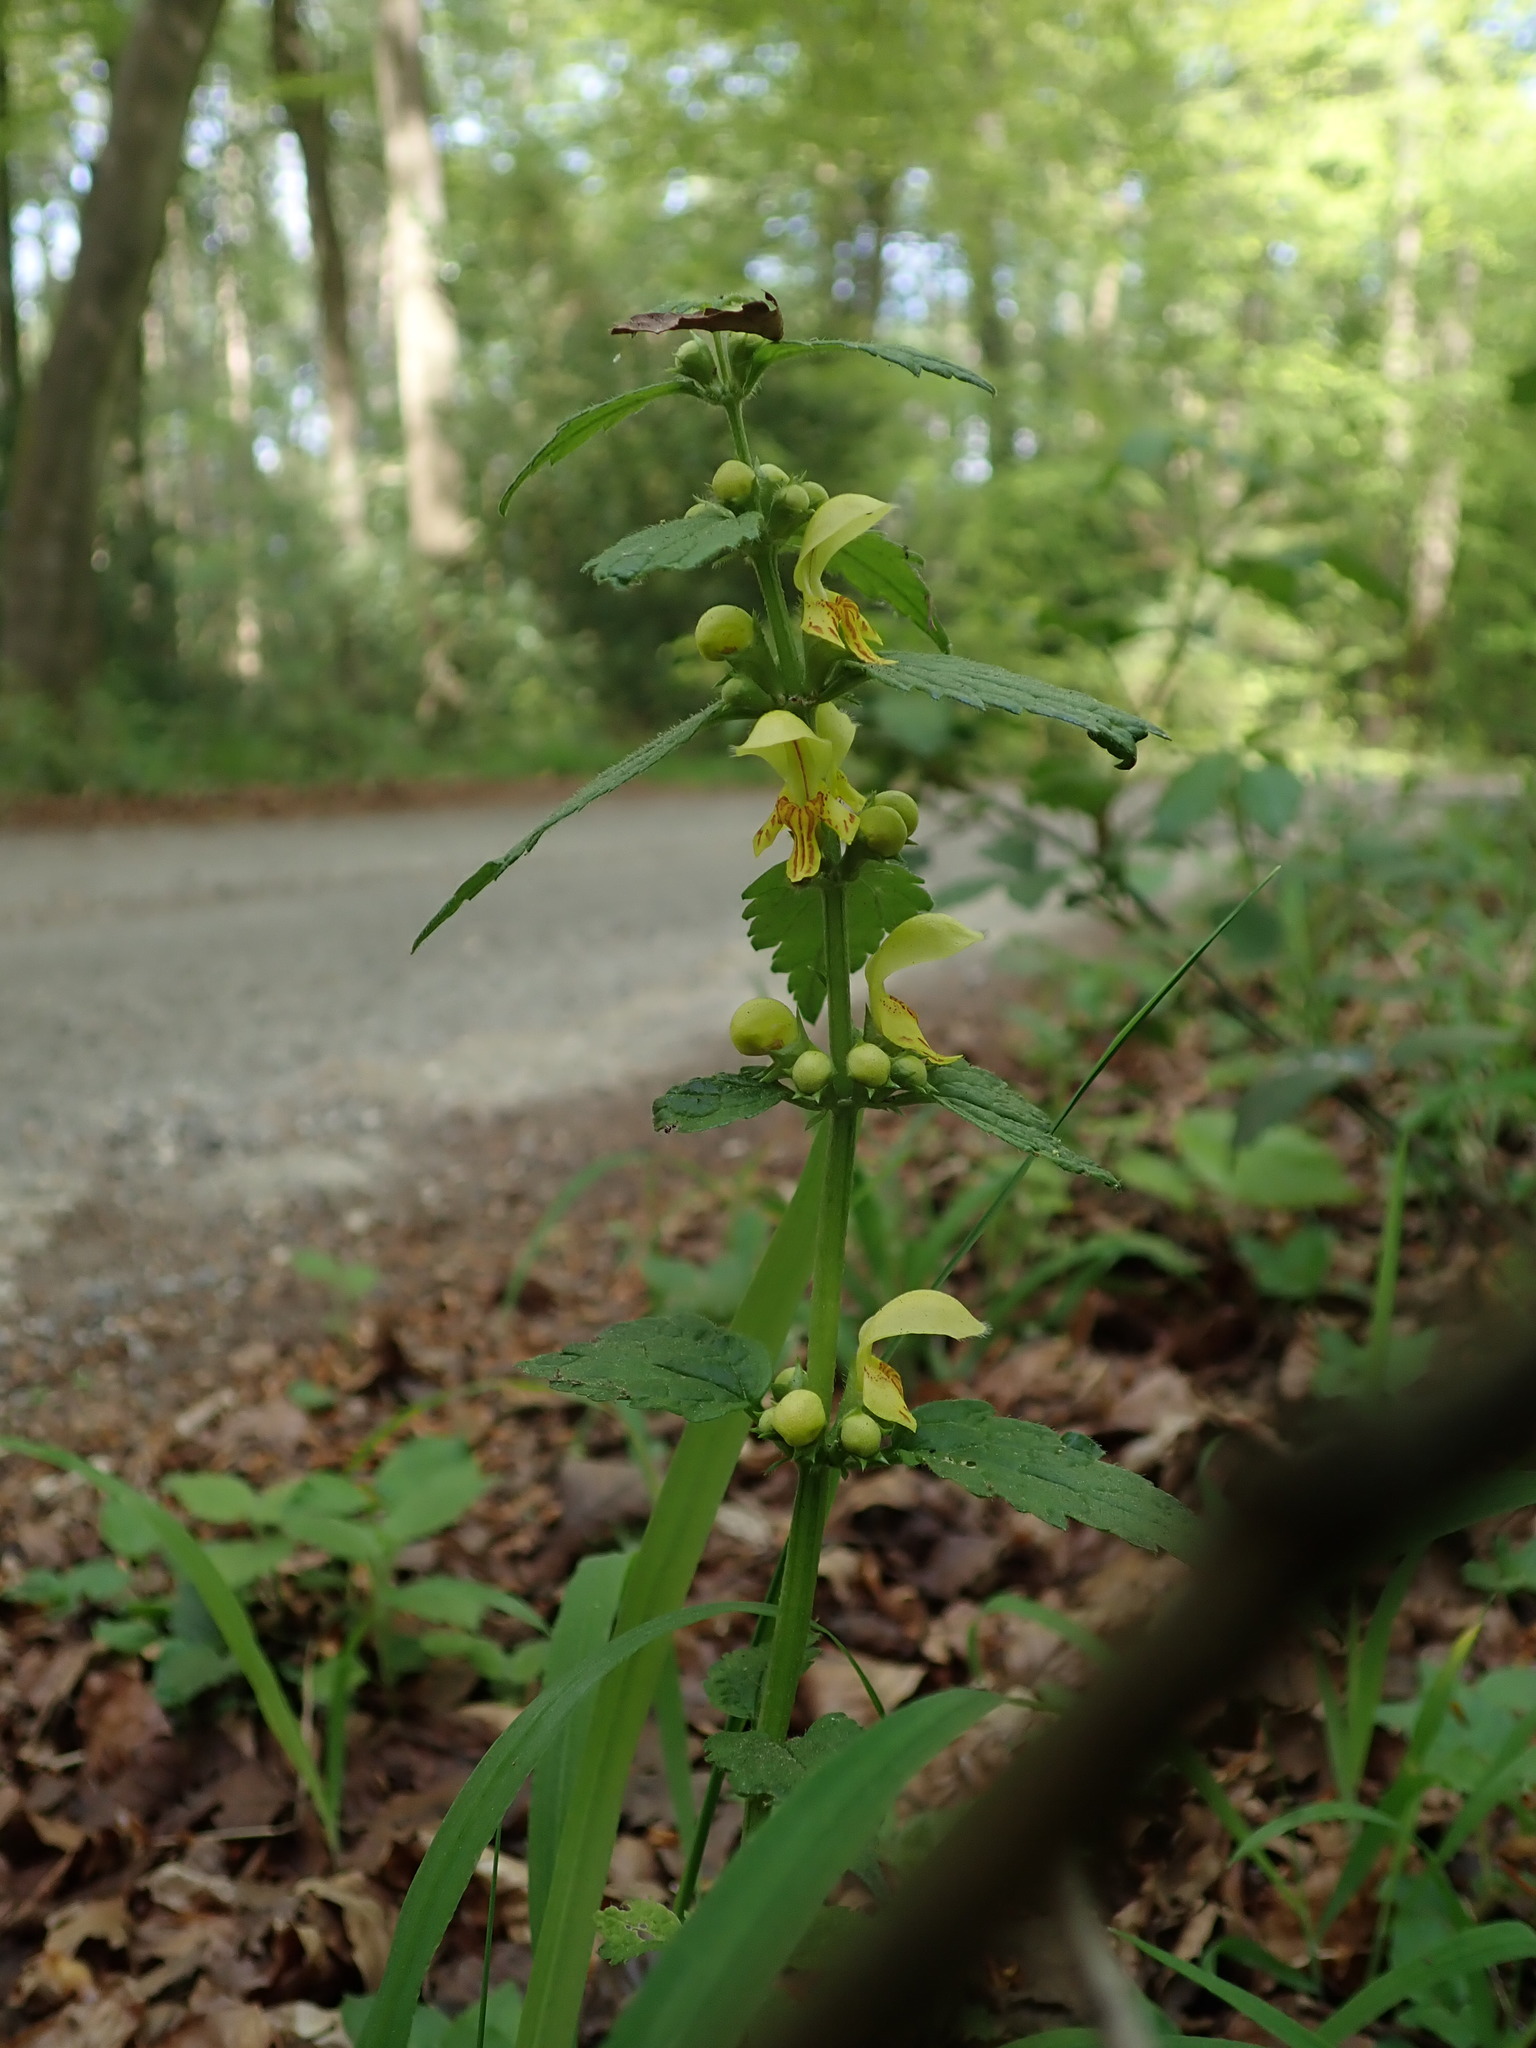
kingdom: Plantae
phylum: Tracheophyta
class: Magnoliopsida
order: Lamiales
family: Lamiaceae
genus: Lamium
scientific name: Lamium galeobdolon
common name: Yellow archangel
